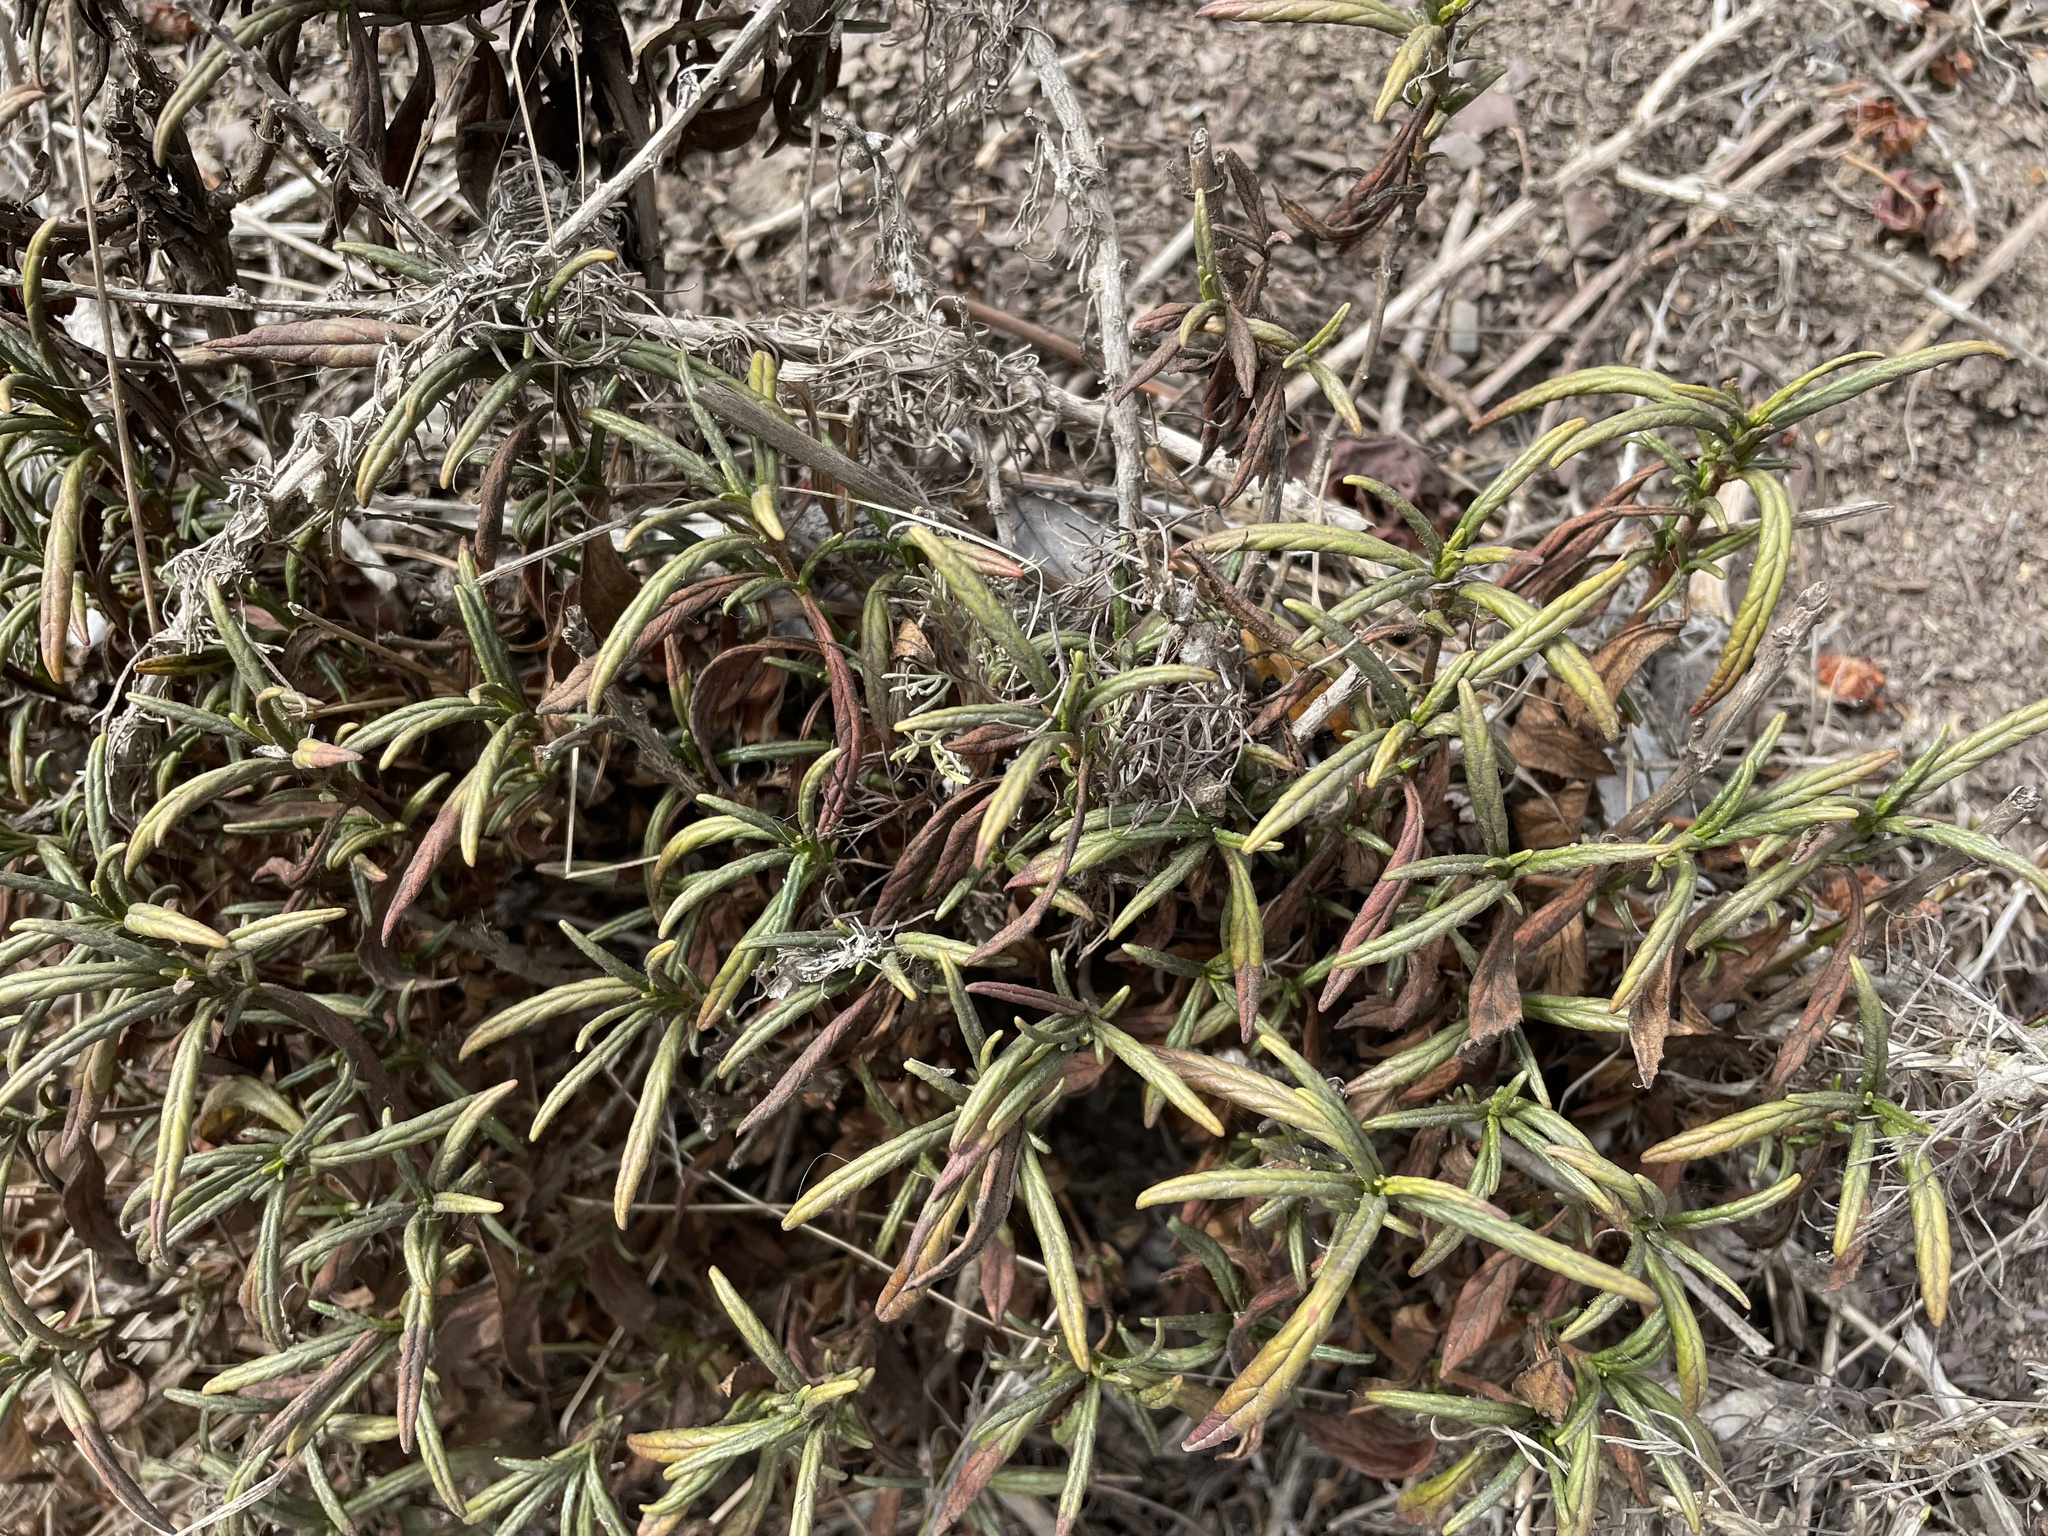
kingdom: Plantae
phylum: Tracheophyta
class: Magnoliopsida
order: Lamiales
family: Phrymaceae
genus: Diplacus
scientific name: Diplacus aurantiacus
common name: Bush monkey-flower
